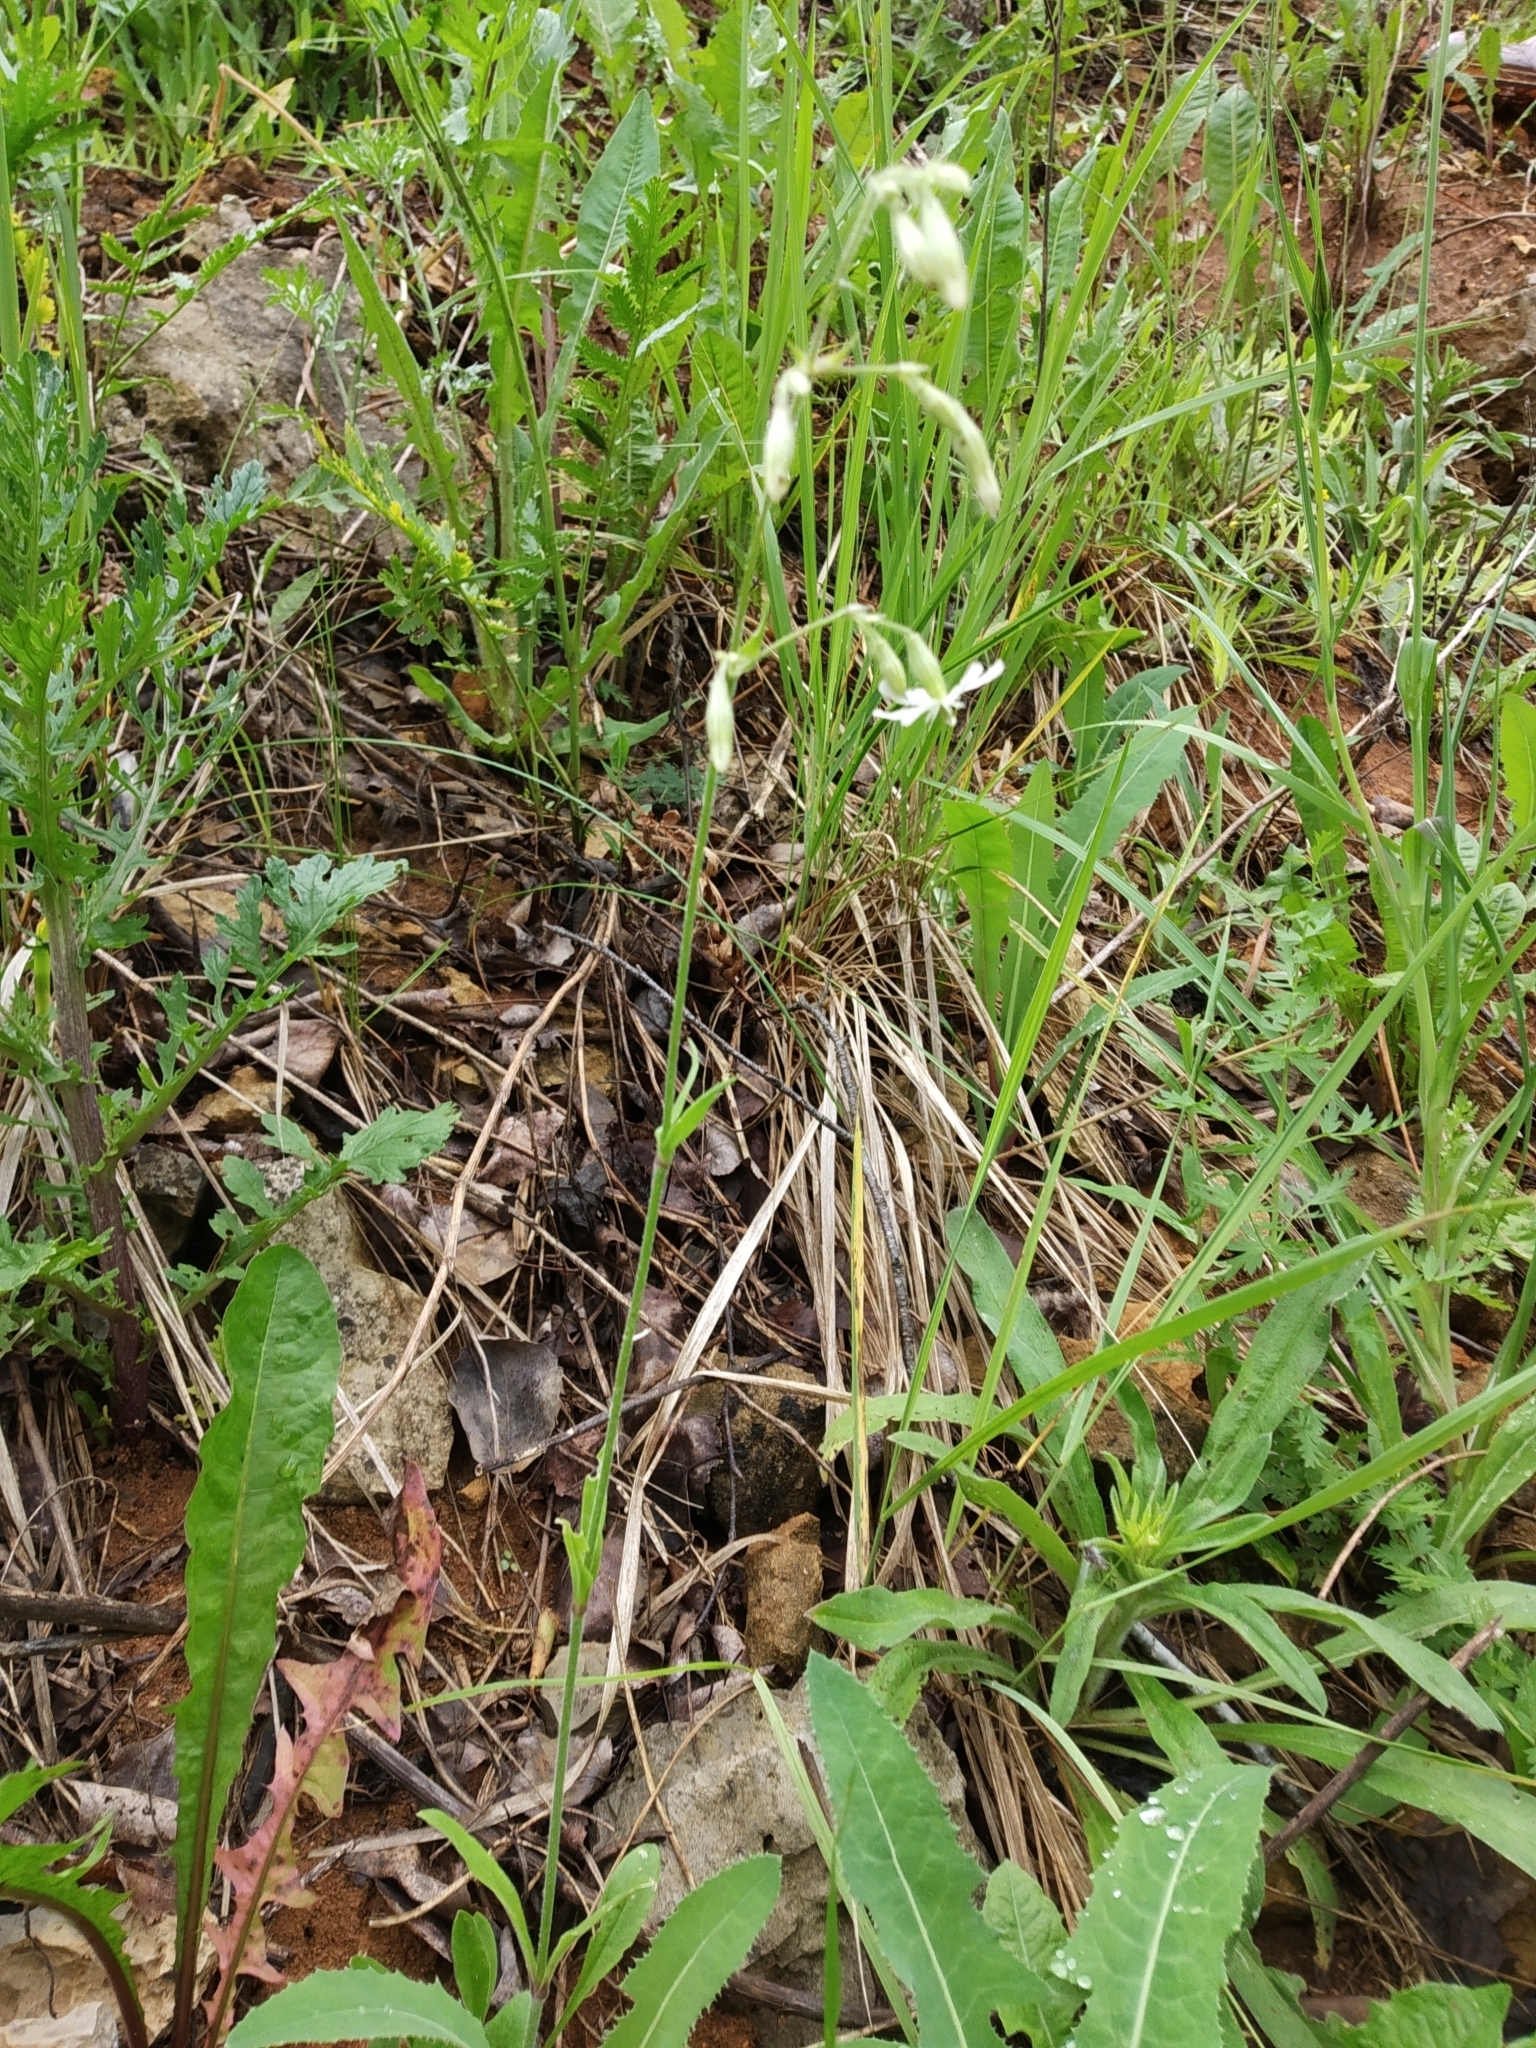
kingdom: Plantae
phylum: Tracheophyta
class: Magnoliopsida
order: Caryophyllales
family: Caryophyllaceae
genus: Silene
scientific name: Silene nutans
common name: Nottingham catchfly
